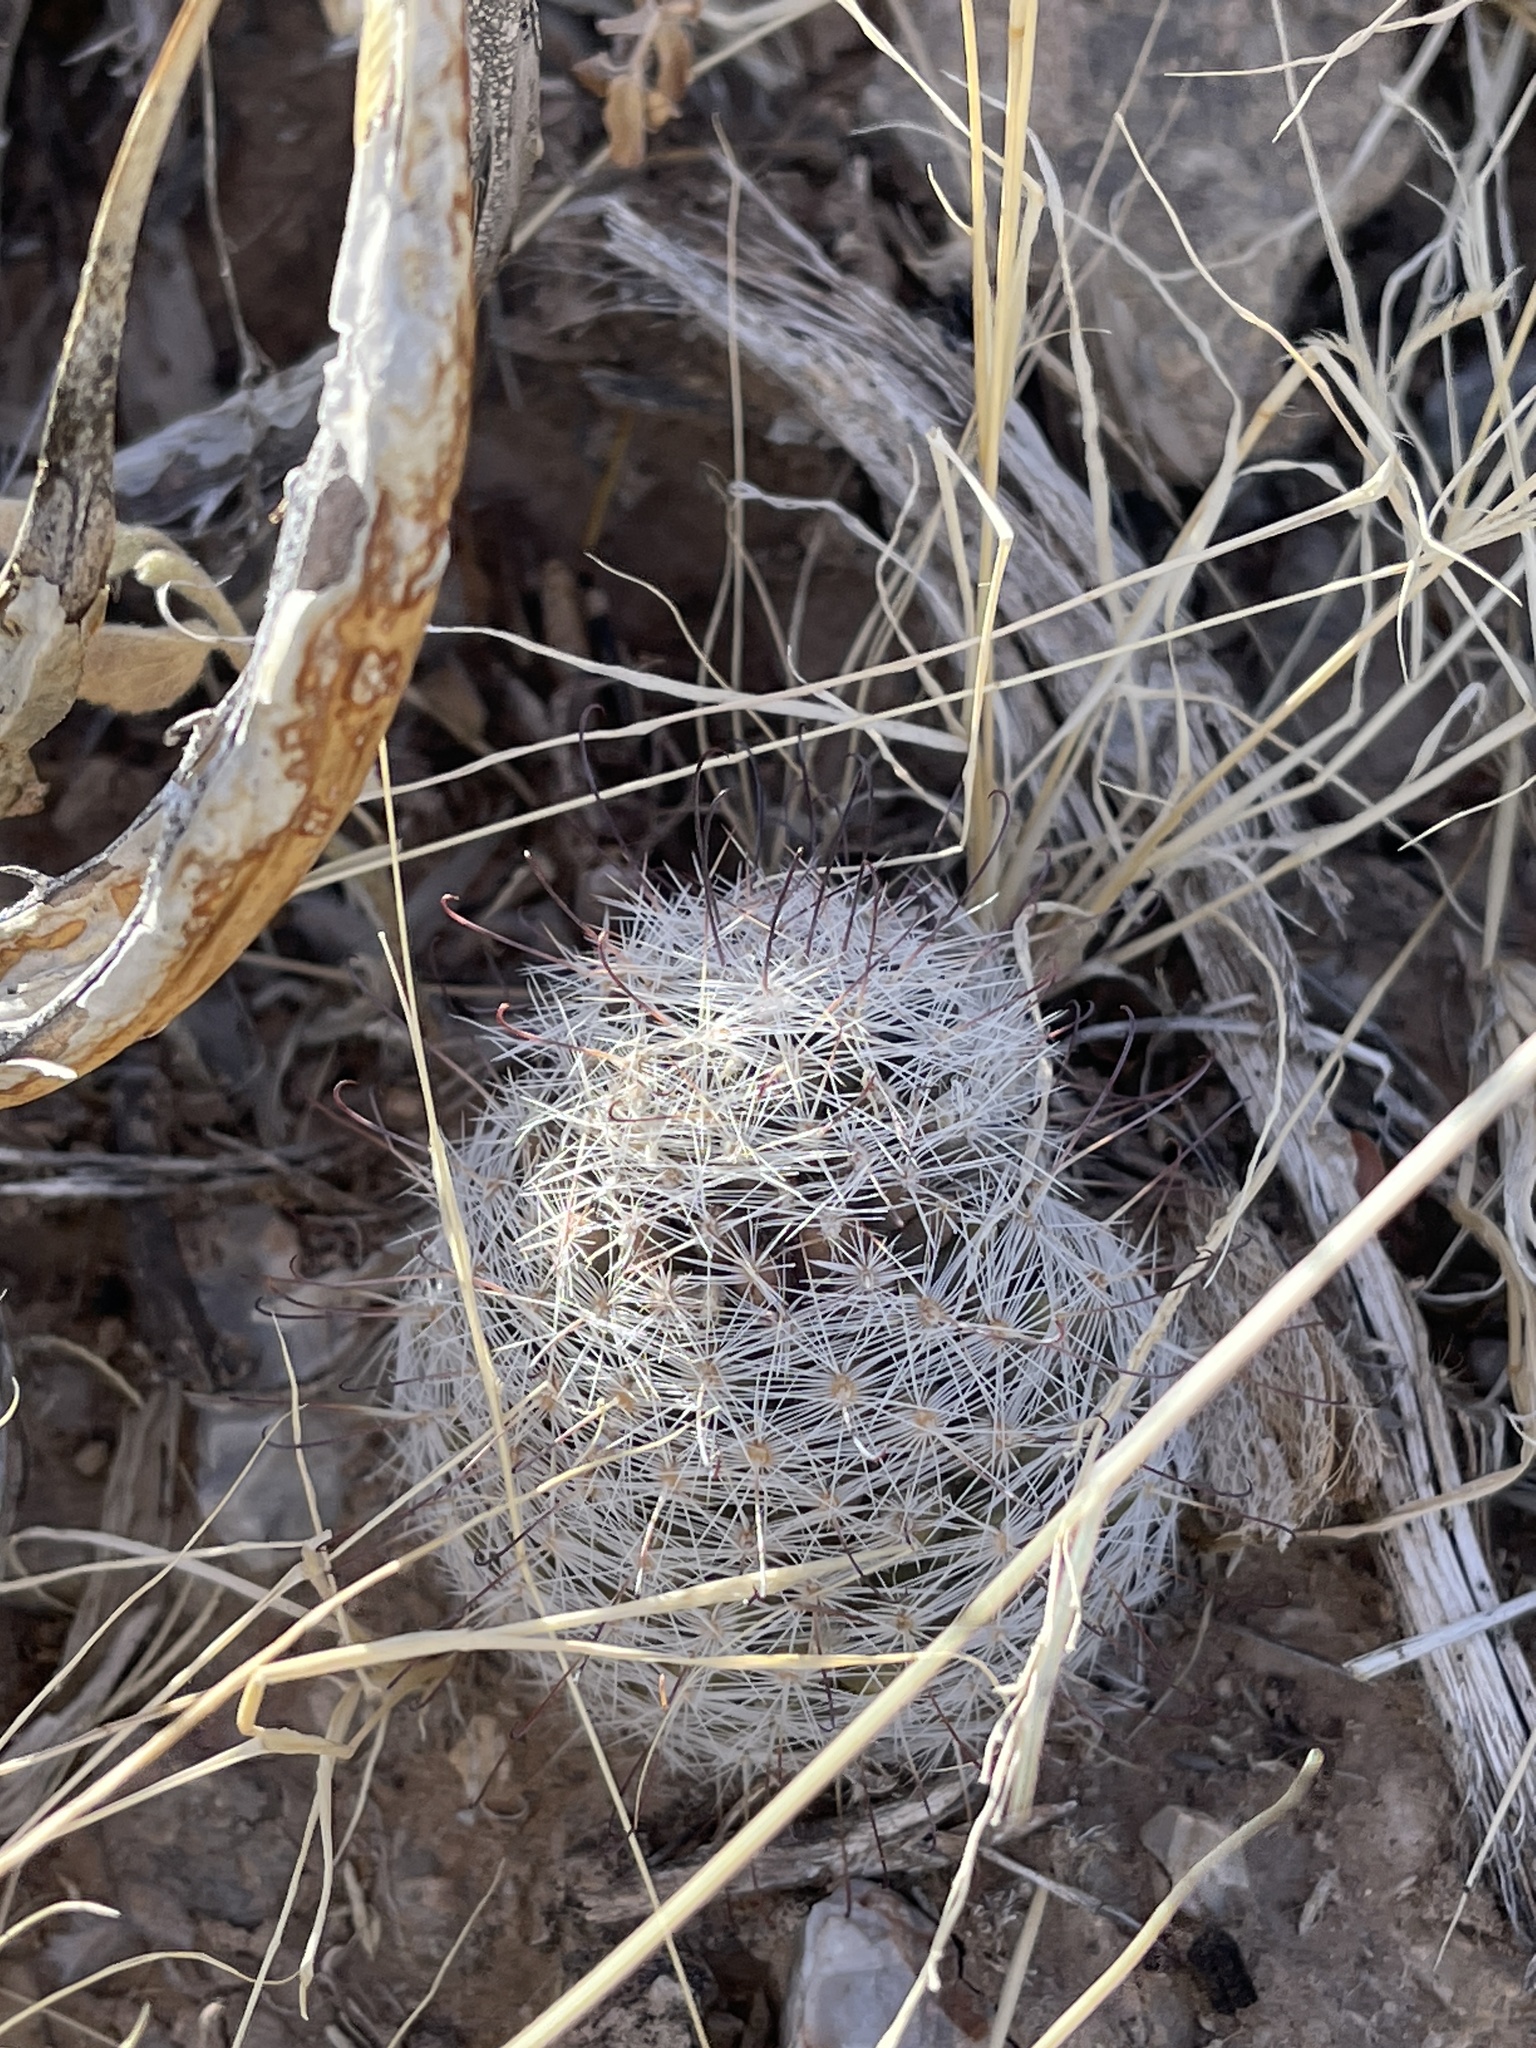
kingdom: Plantae
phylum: Tracheophyta
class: Magnoliopsida
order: Caryophyllales
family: Cactaceae
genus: Cochemiea
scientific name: Cochemiea grahamii
